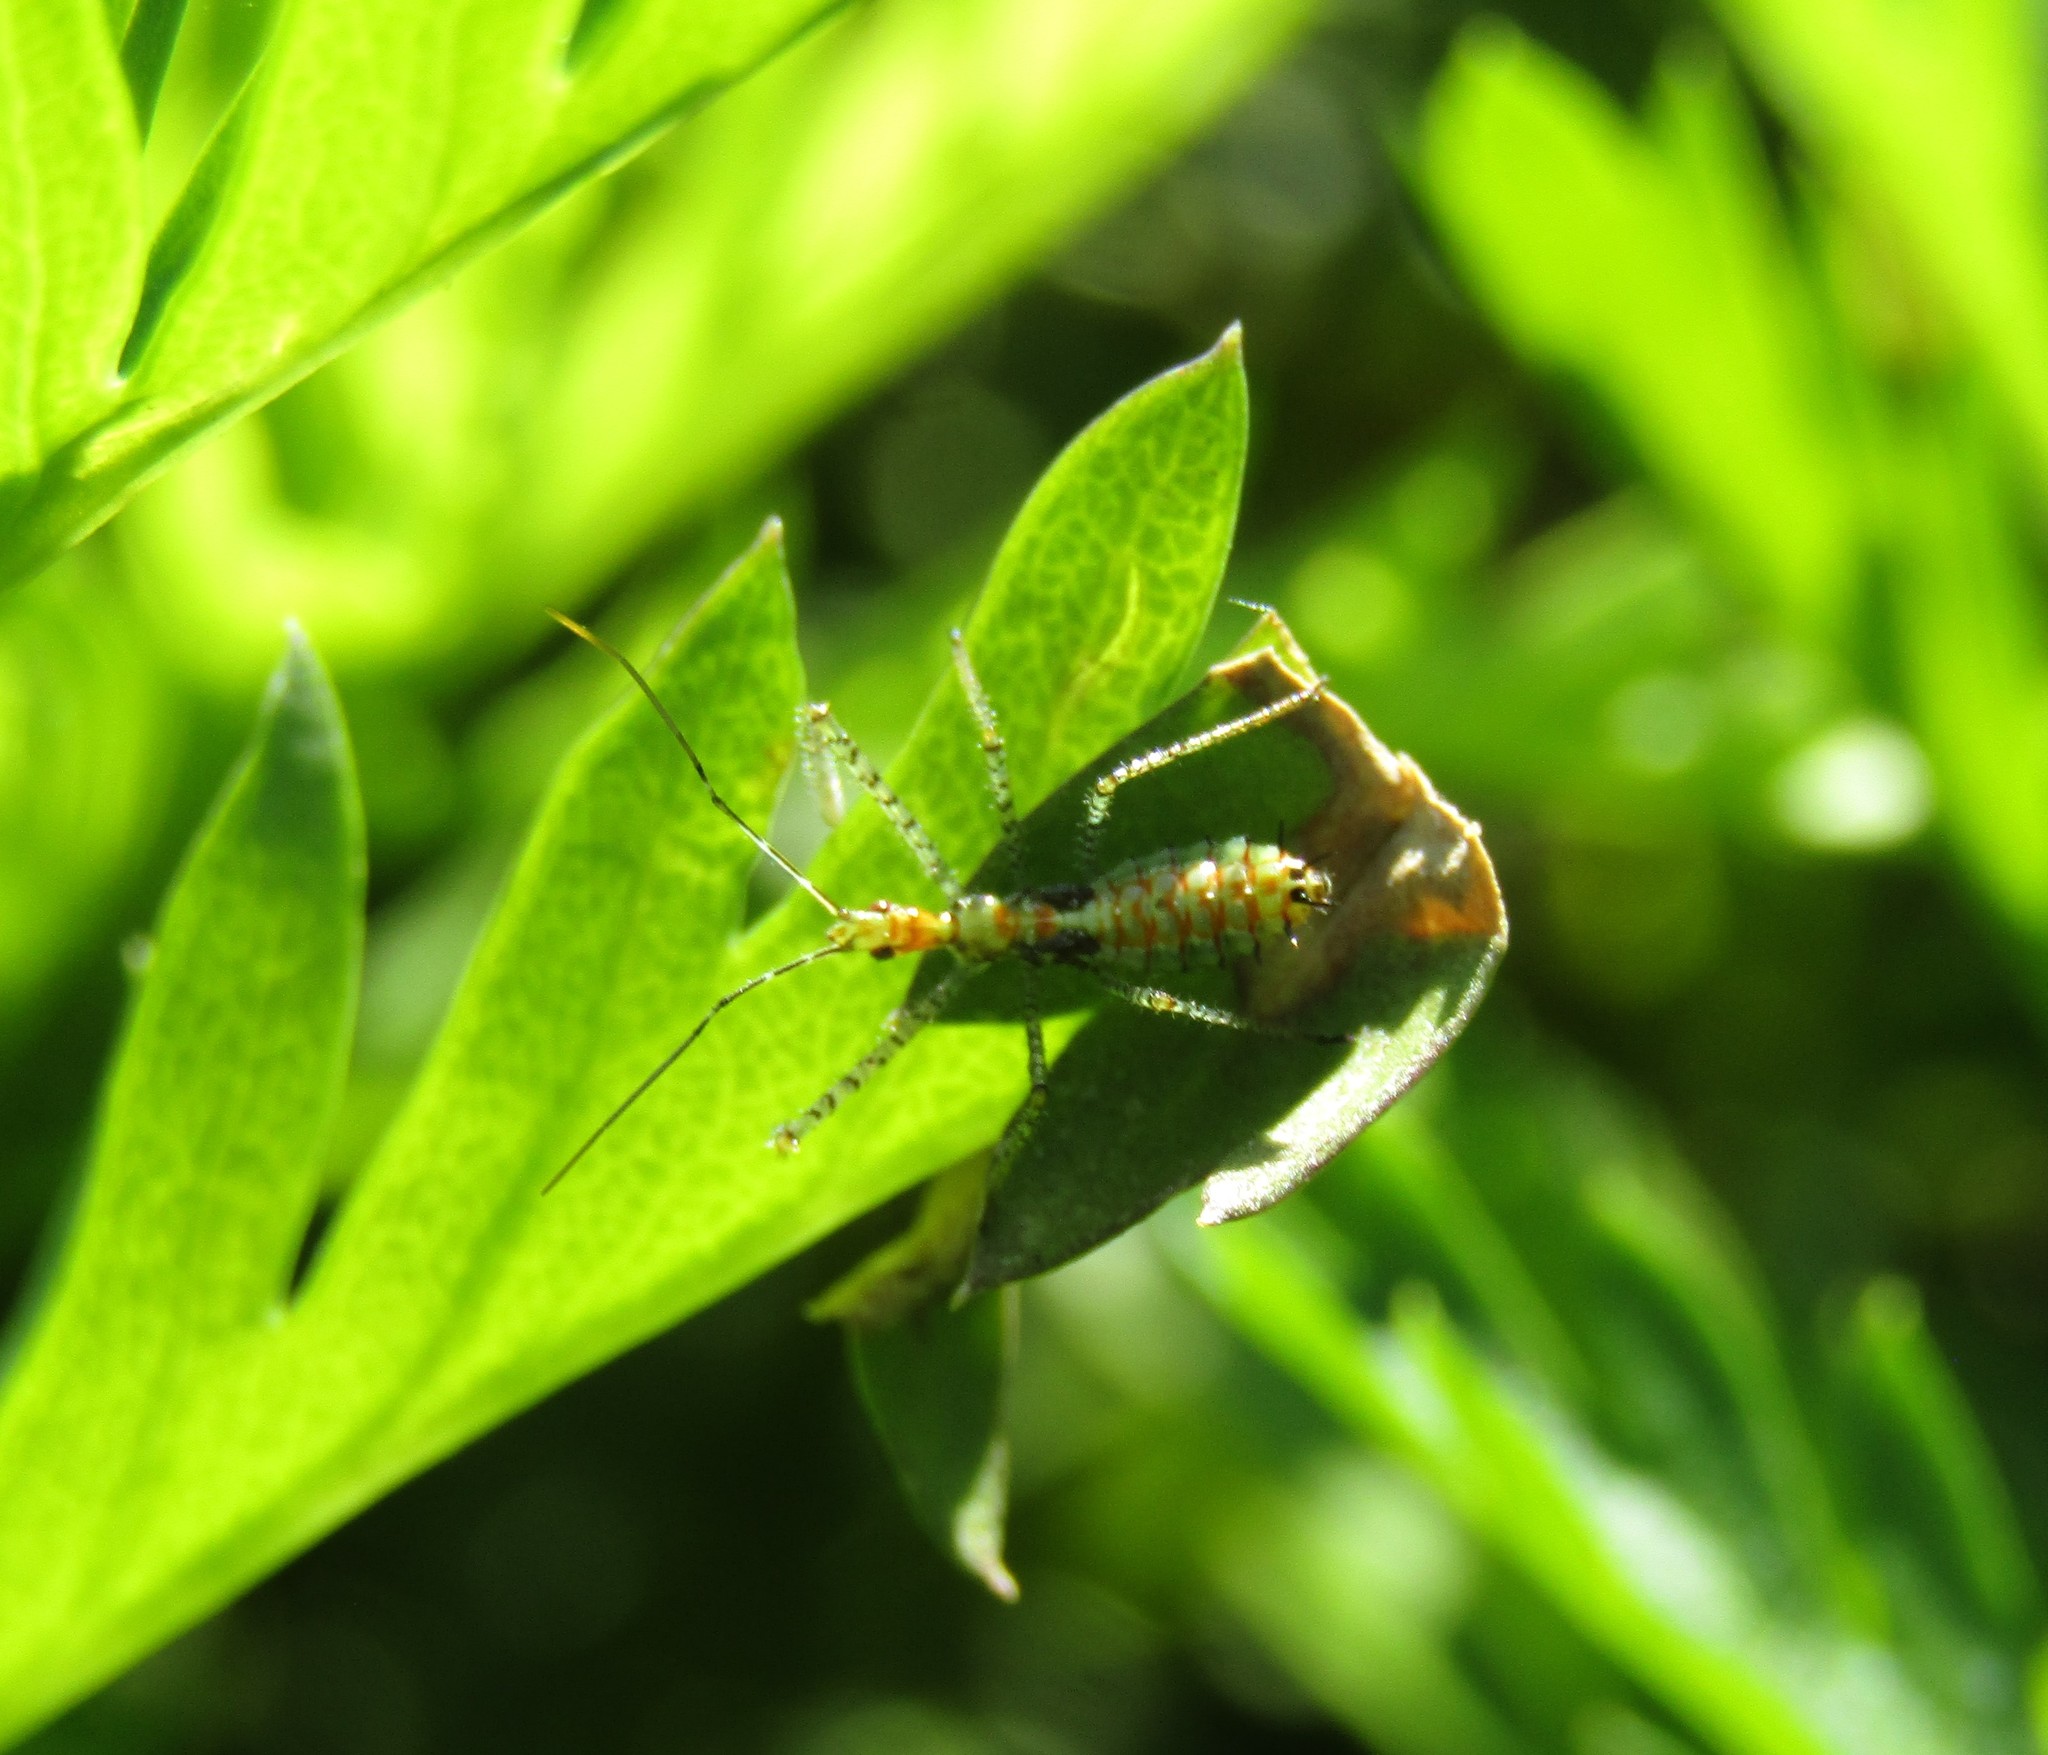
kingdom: Animalia
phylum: Arthropoda
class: Insecta
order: Hemiptera
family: Reduviidae
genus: Zelus
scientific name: Zelus renardii
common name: Assassin bug
